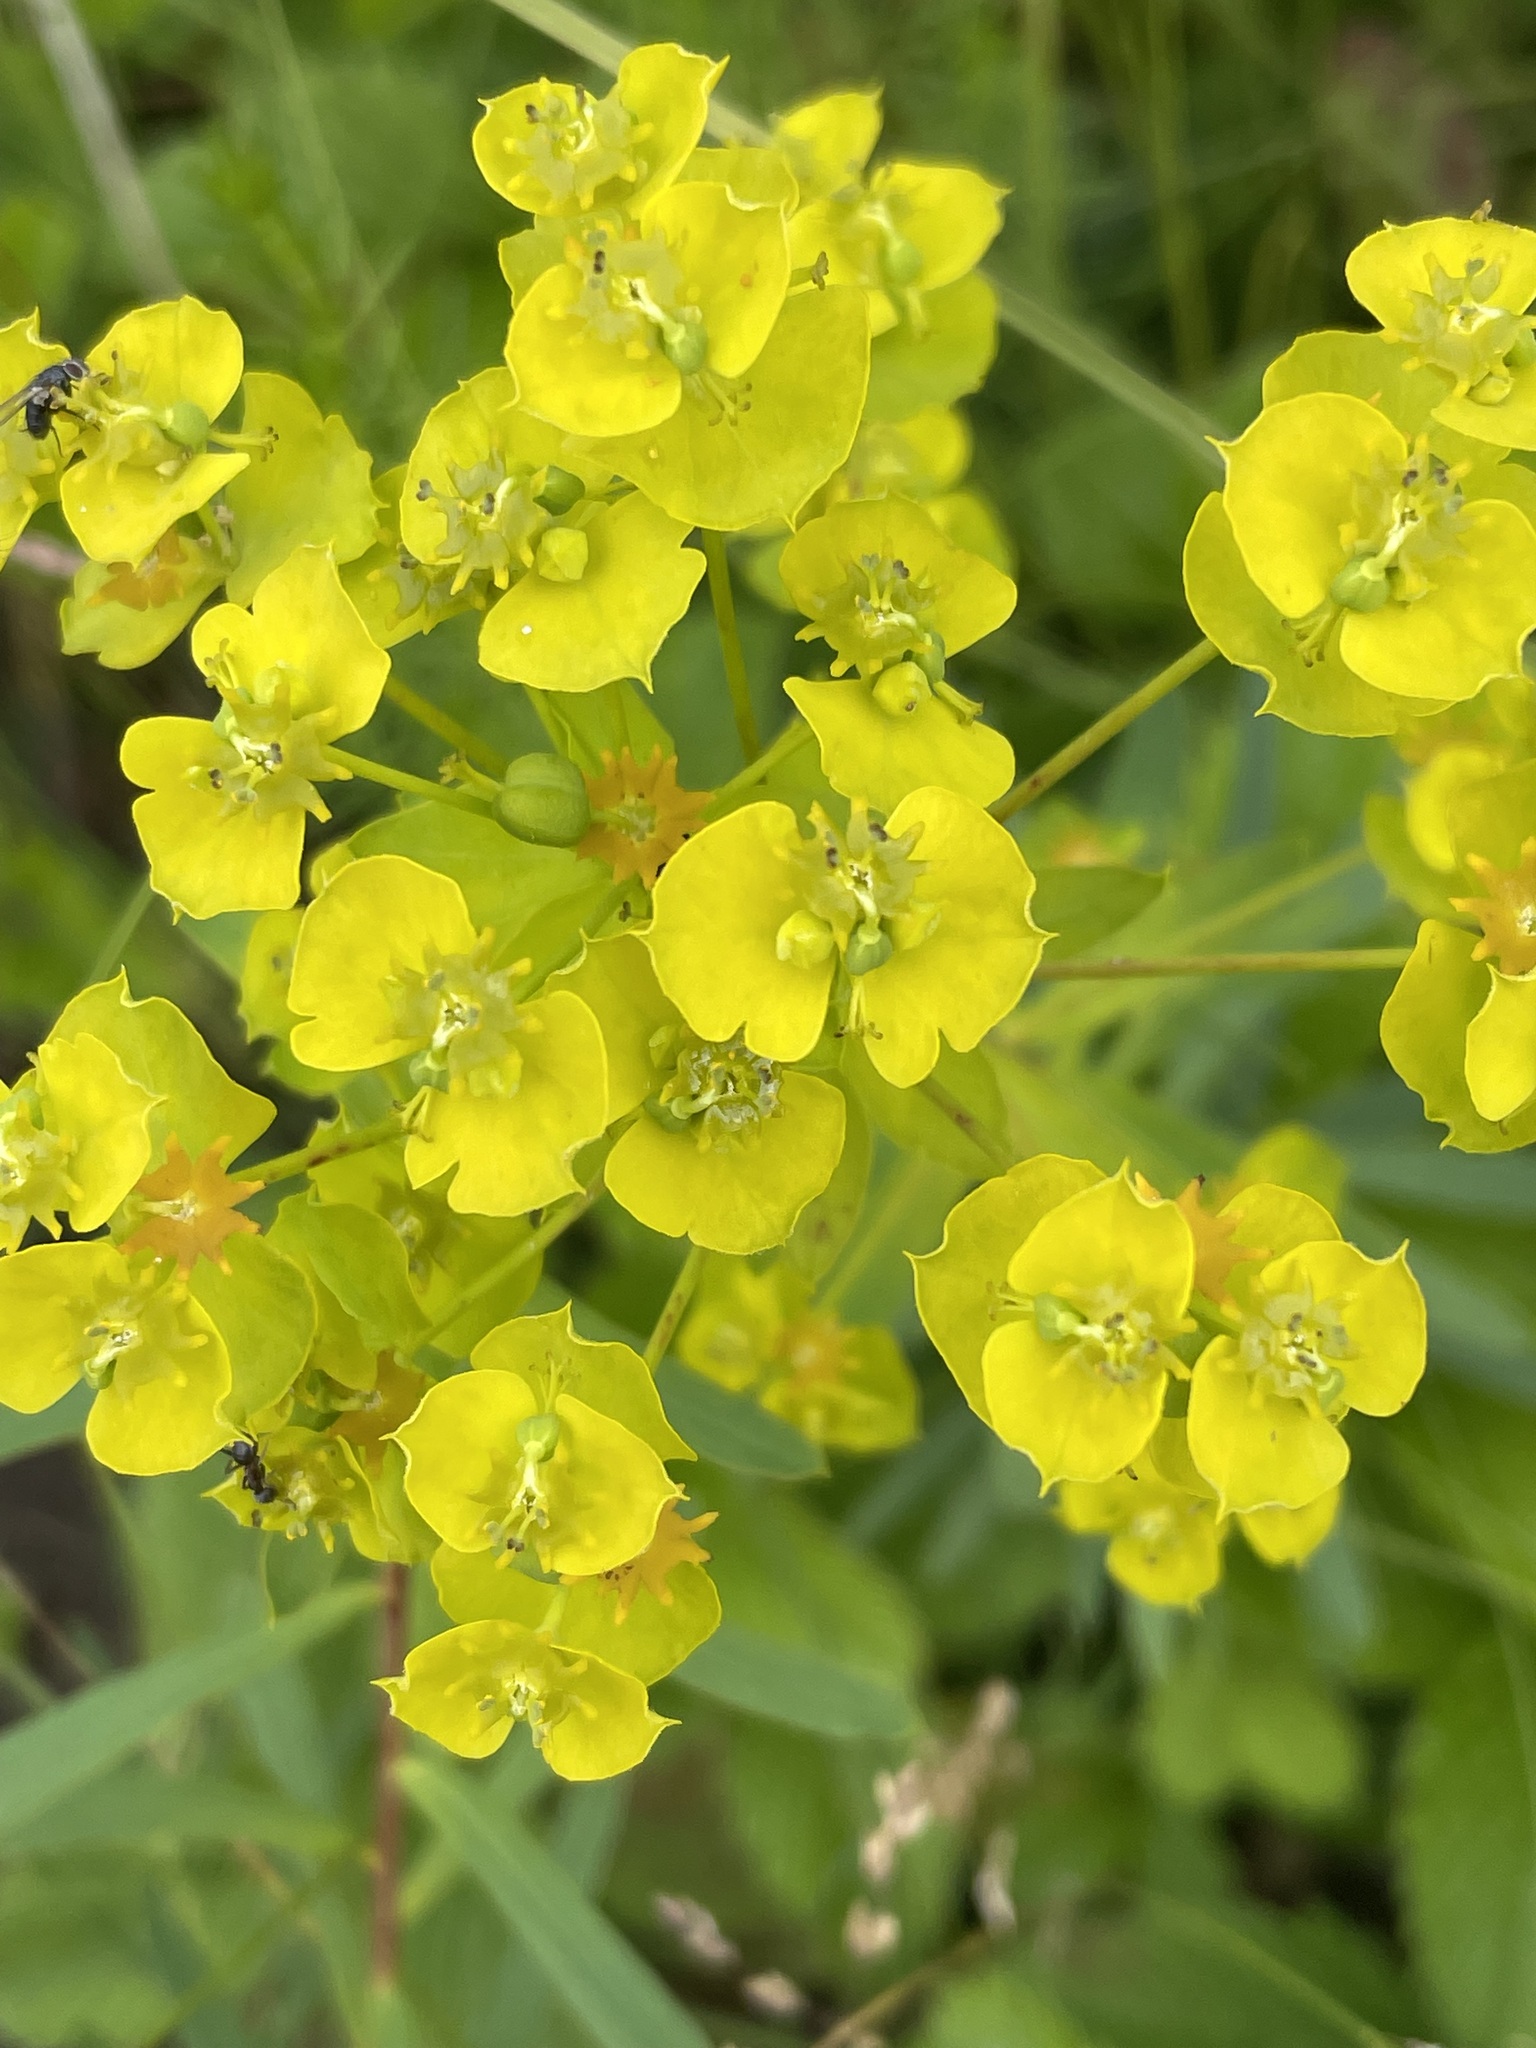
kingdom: Plantae
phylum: Tracheophyta
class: Magnoliopsida
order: Malpighiales
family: Euphorbiaceae
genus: Euphorbia
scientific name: Euphorbia virgata
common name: Leafy spurge
